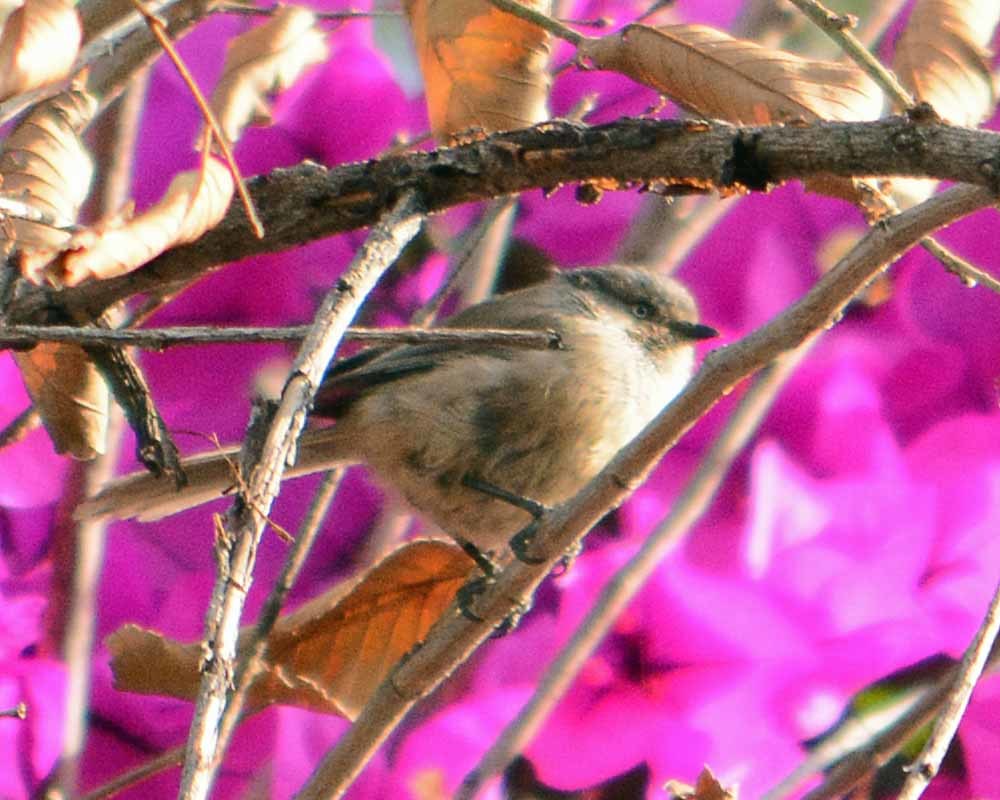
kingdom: Animalia
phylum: Chordata
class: Aves
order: Passeriformes
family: Aegithalidae
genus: Psaltriparus
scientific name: Psaltriparus minimus
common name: American bushtit
